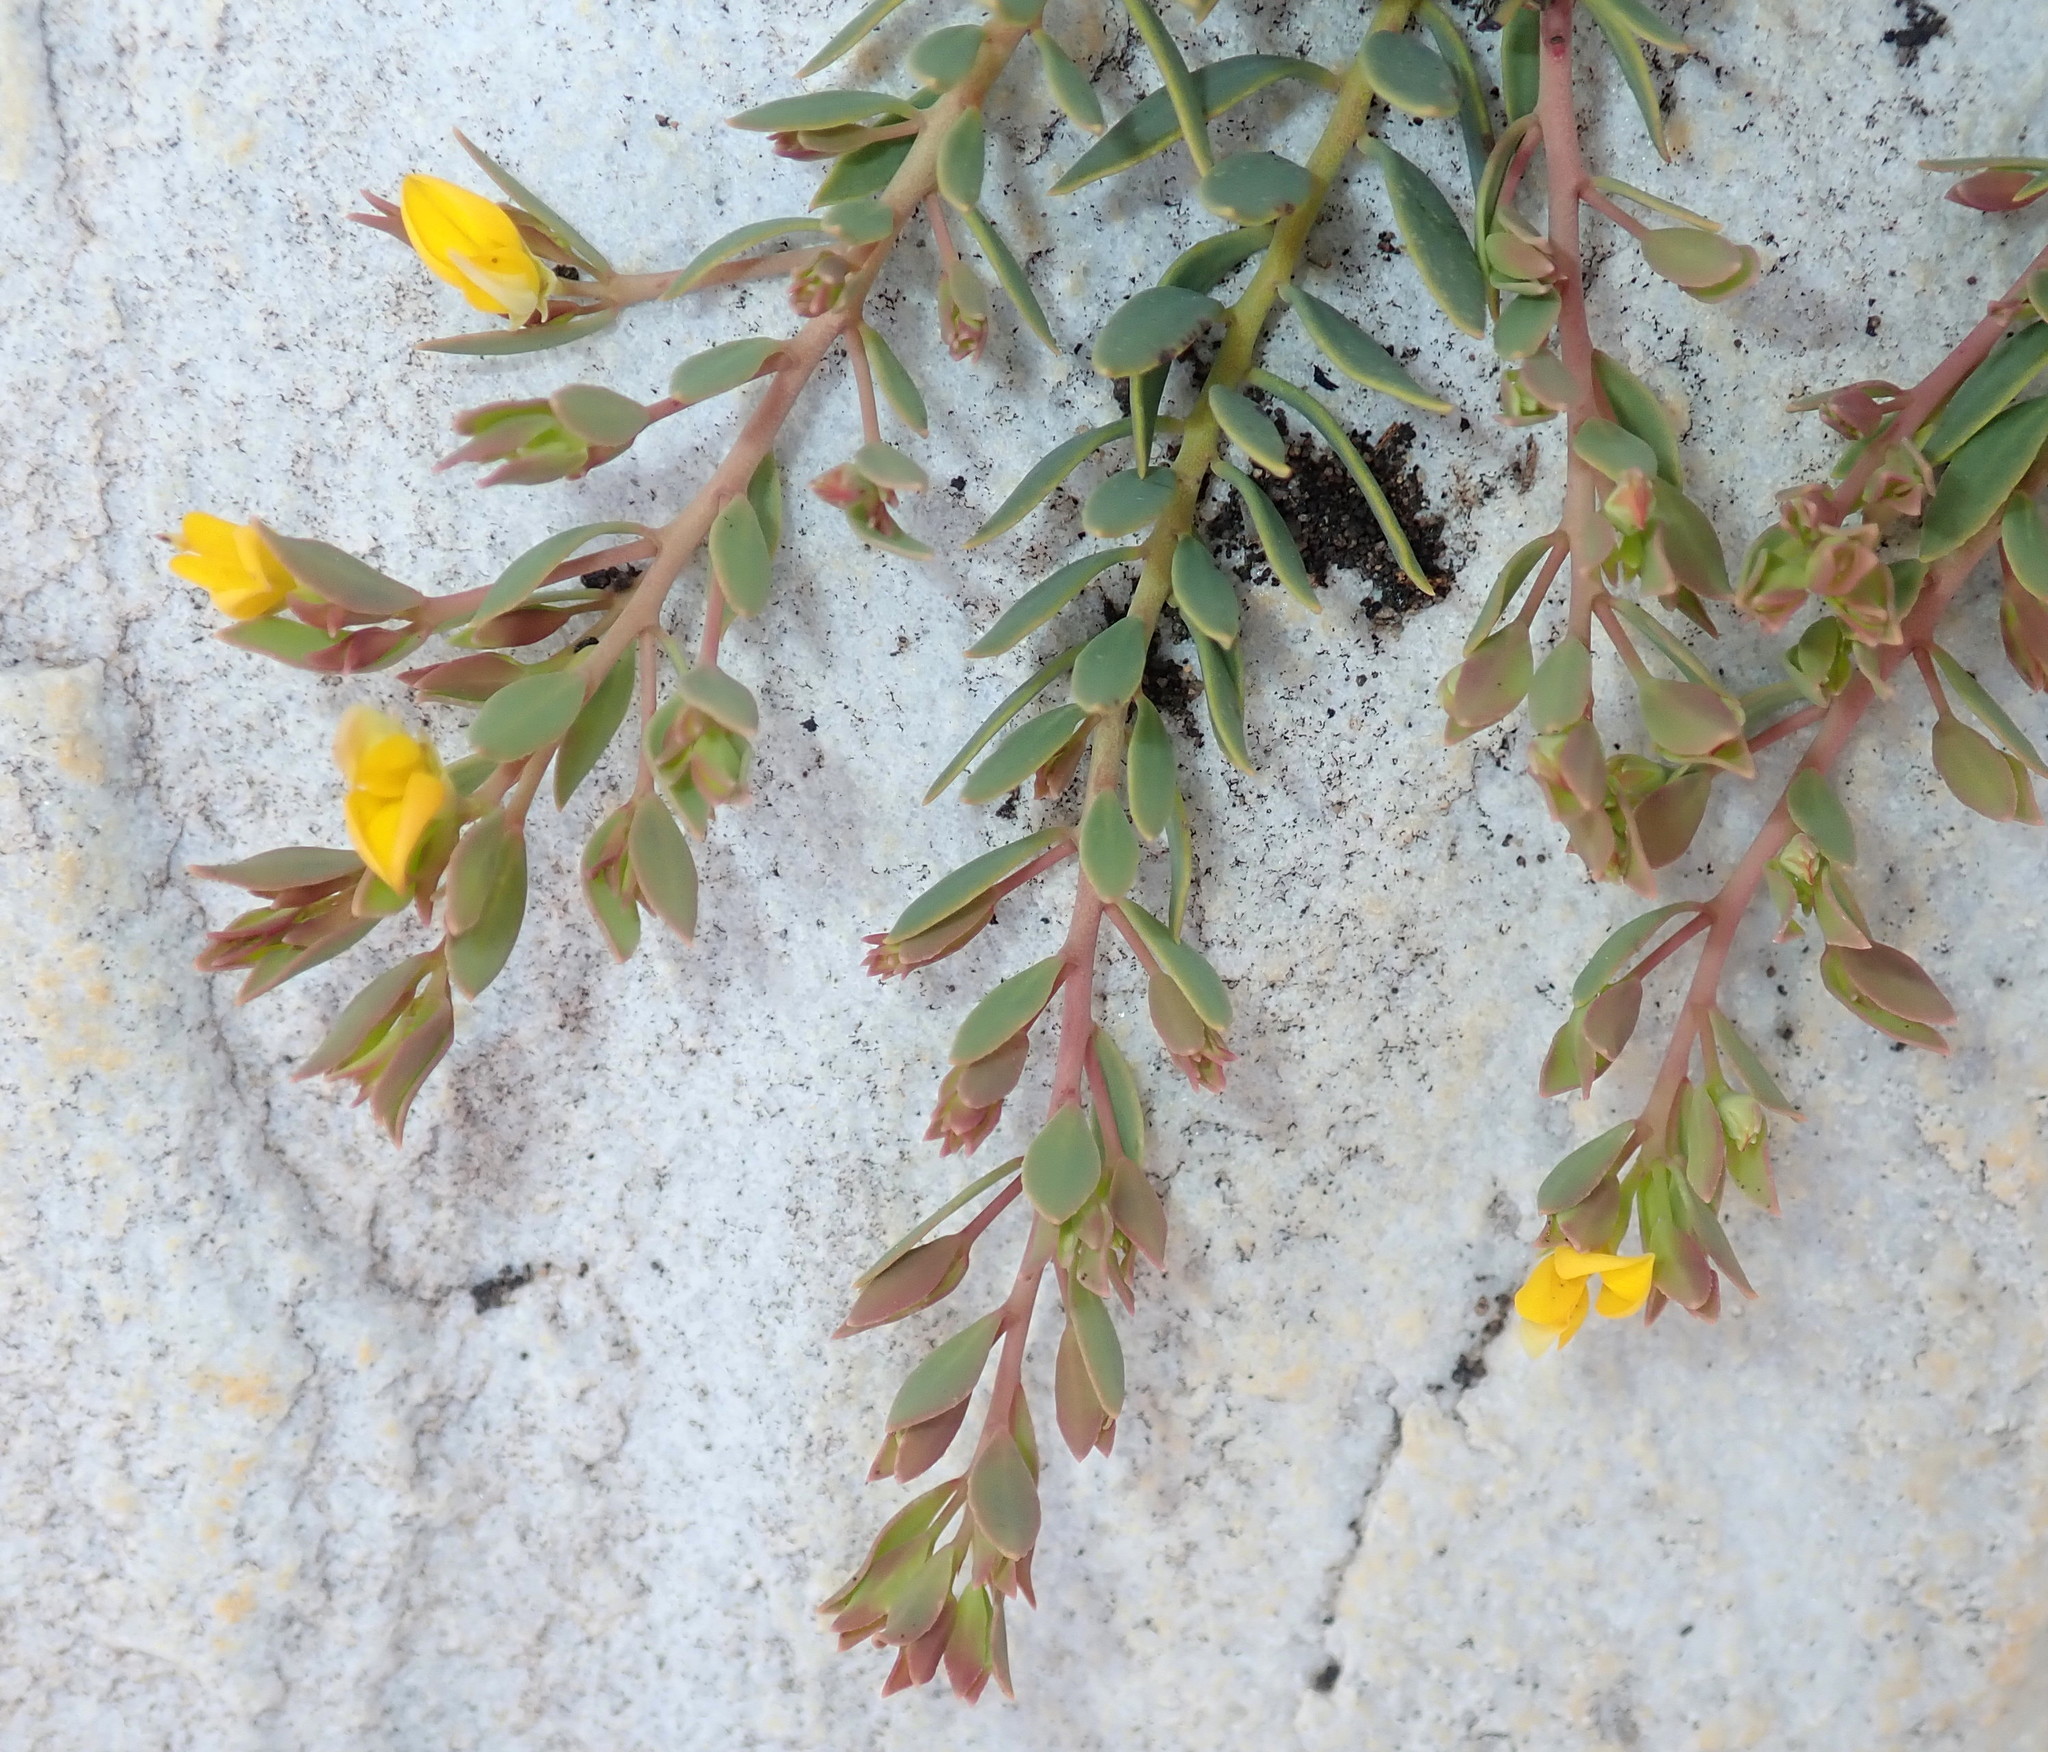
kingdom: Plantae
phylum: Tracheophyta
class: Magnoliopsida
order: Fabales
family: Fabaceae
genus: Rafnia
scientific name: Rafnia capensis
